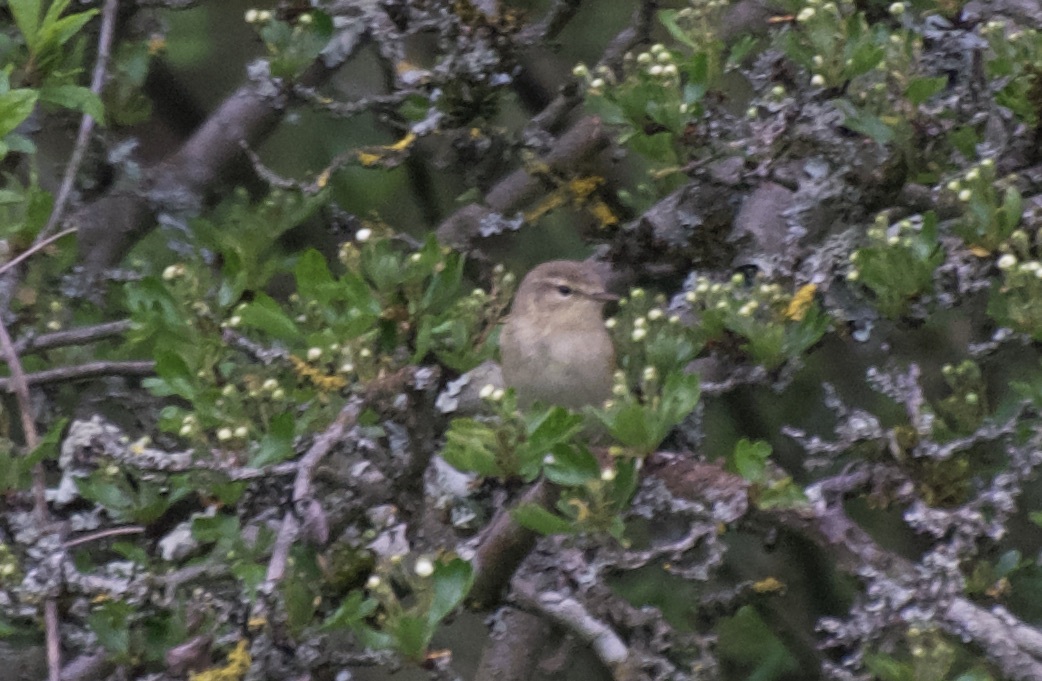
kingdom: Animalia
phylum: Chordata
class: Aves
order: Passeriformes
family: Phylloscopidae
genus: Phylloscopus
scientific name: Phylloscopus collybita
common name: Common chiffchaff
